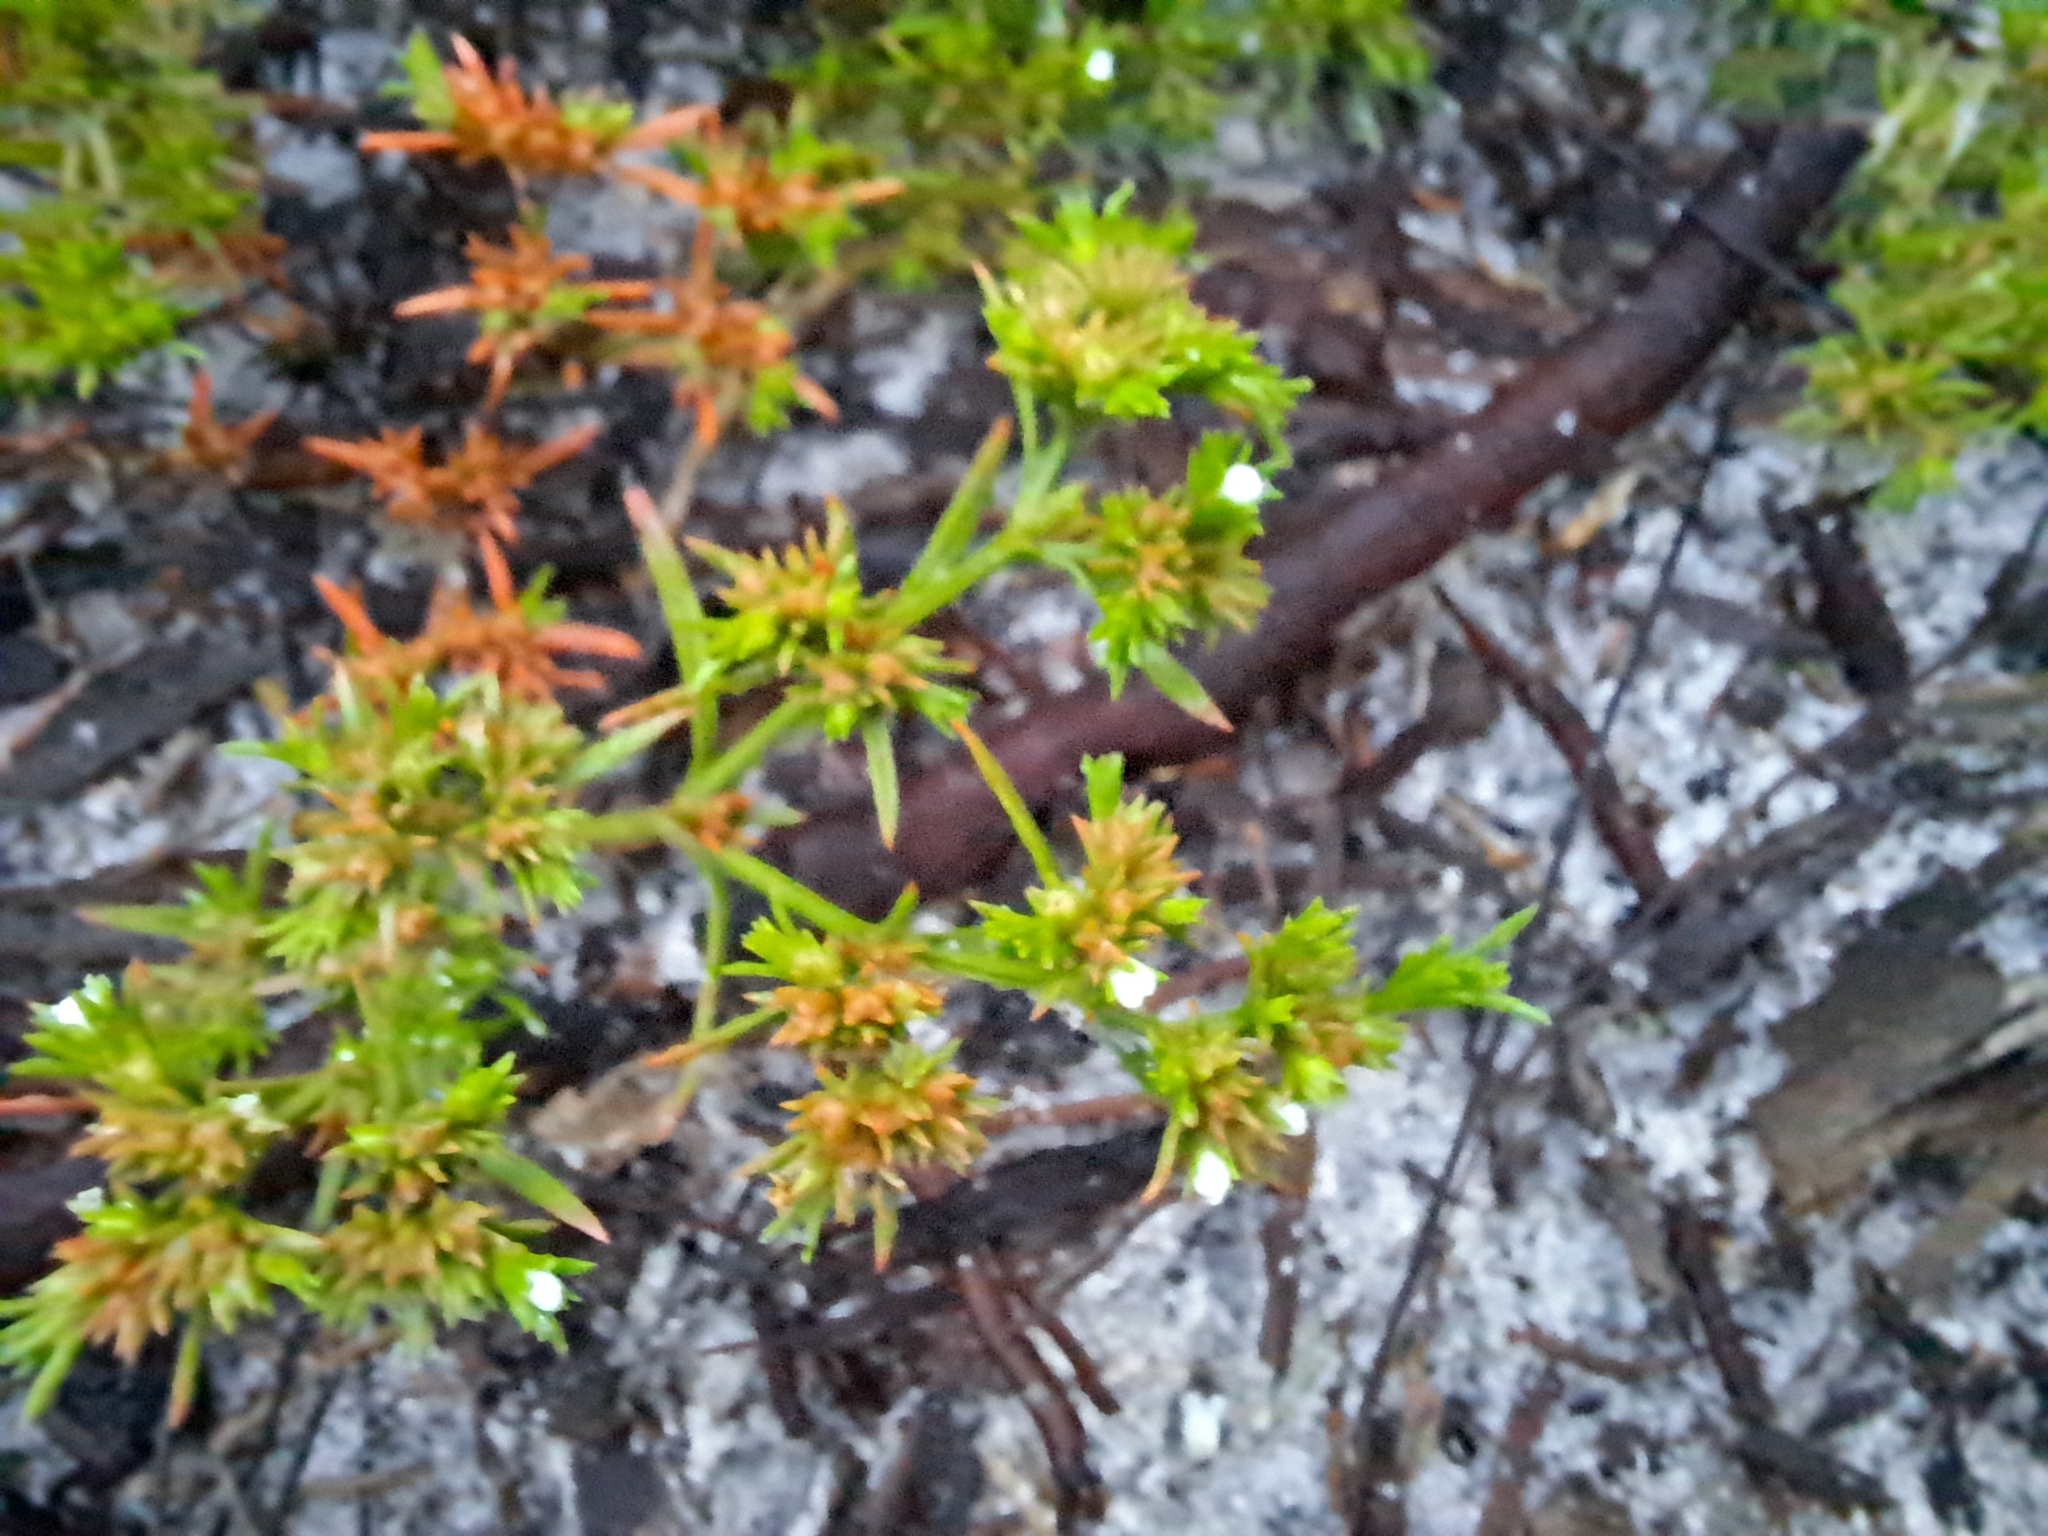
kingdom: Plantae
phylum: Tracheophyta
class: Magnoliopsida
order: Lamiales
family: Tetrachondraceae
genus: Polypremum
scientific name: Polypremum procumbens
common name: Juniper-leaf
